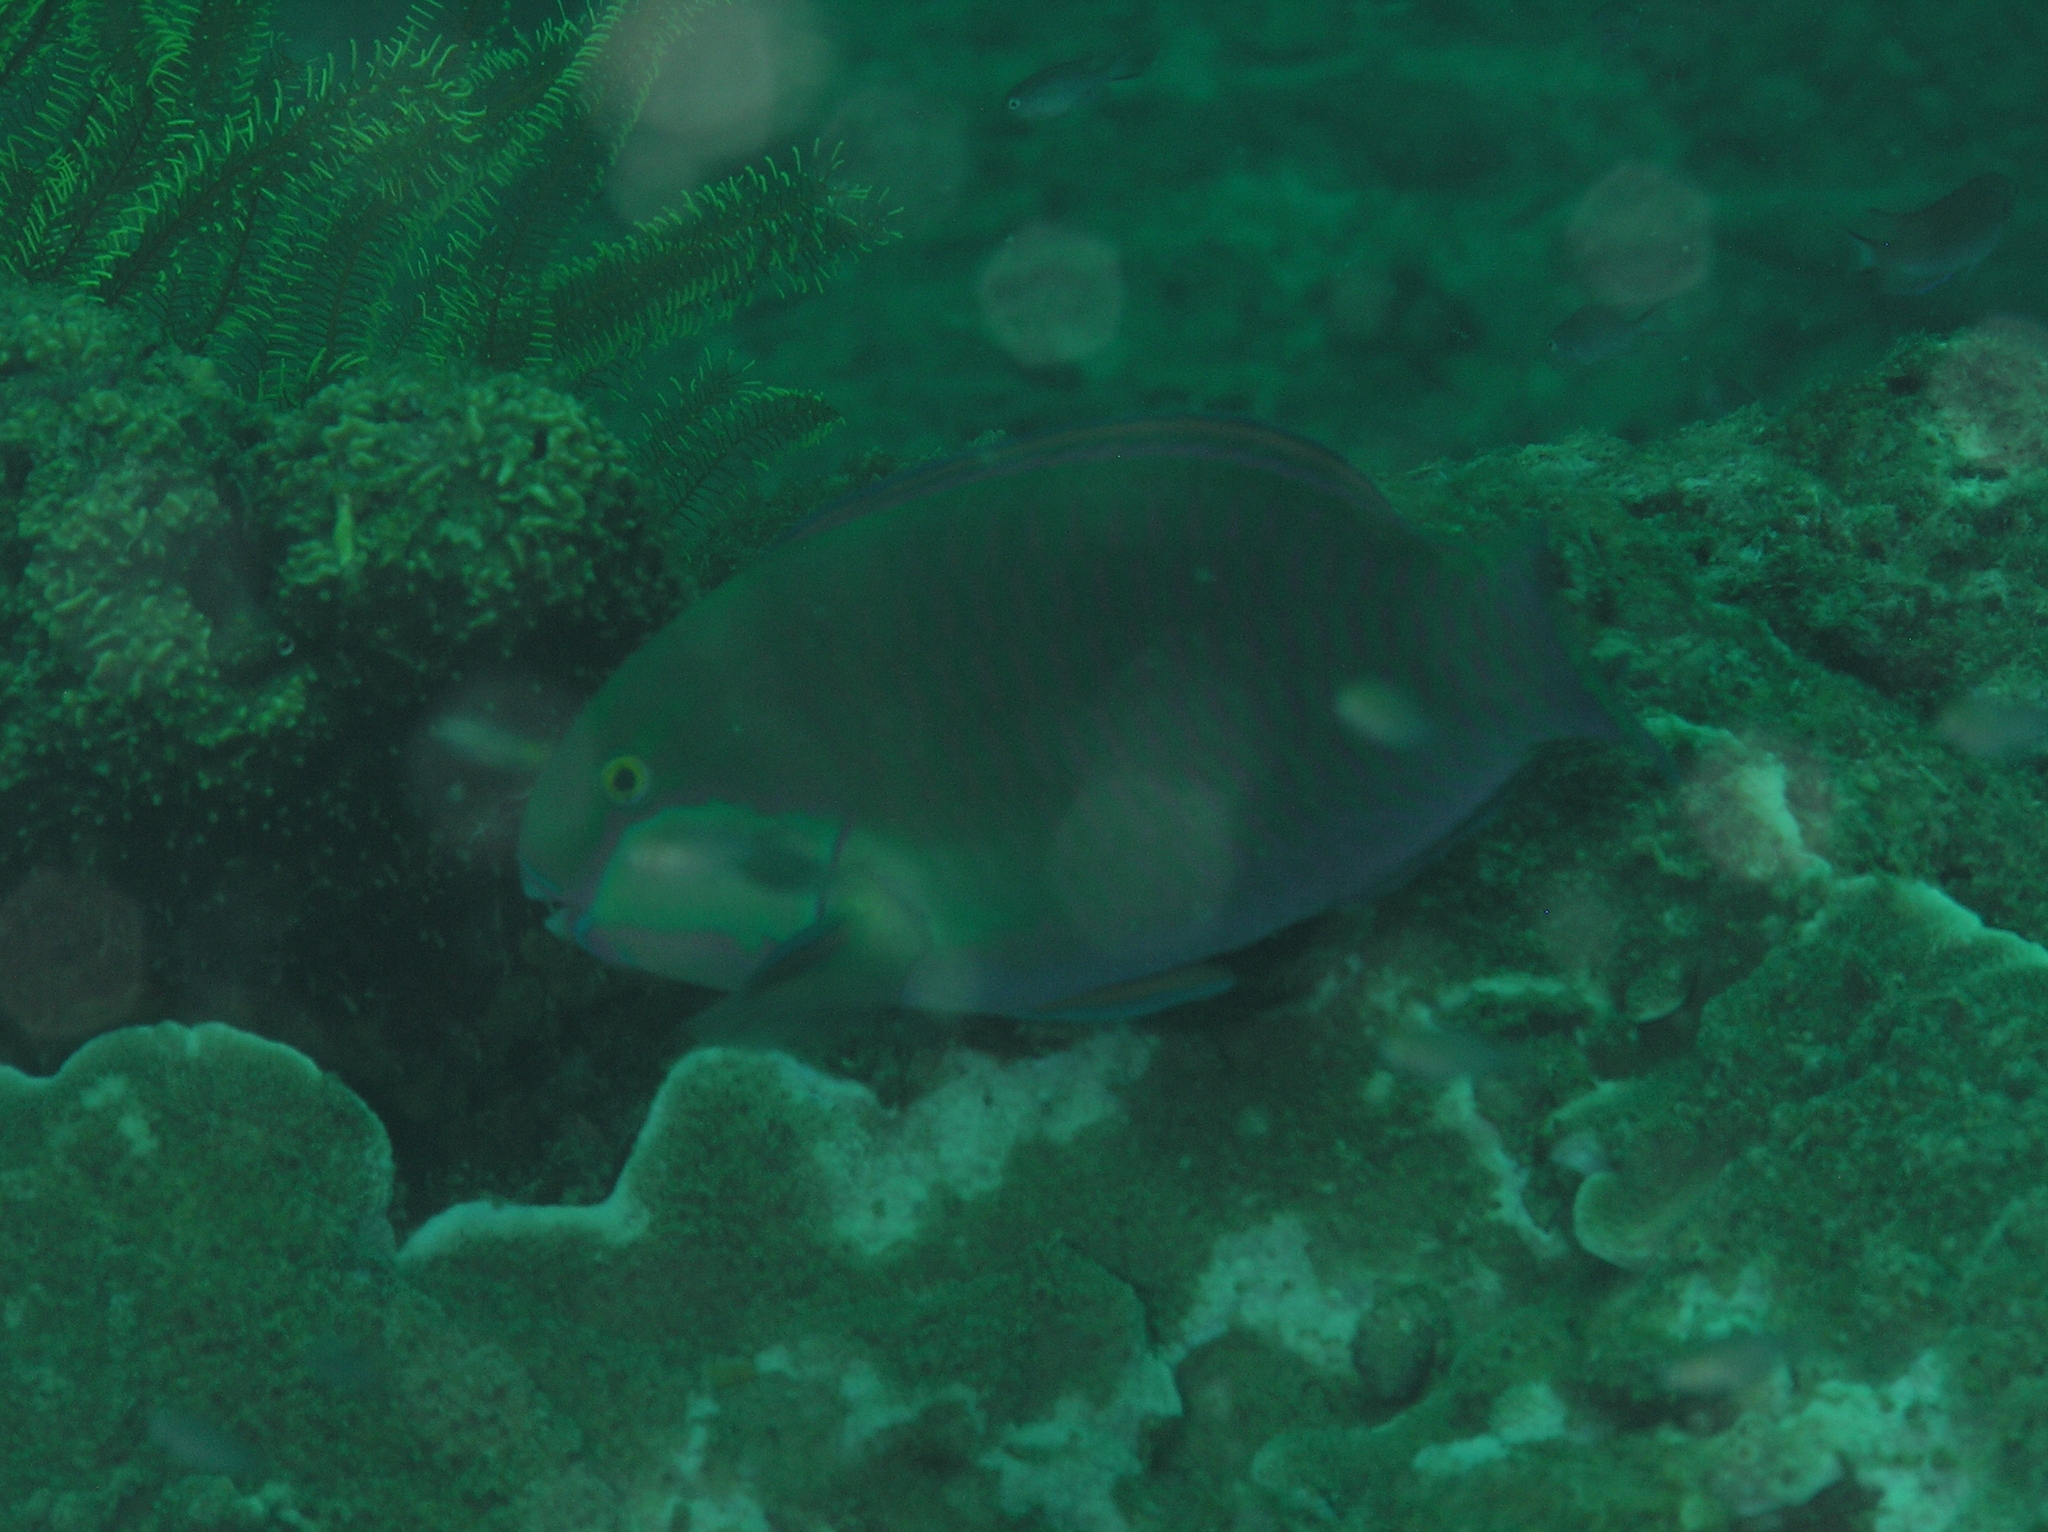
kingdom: Animalia
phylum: Chordata
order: Perciformes
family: Scaridae
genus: Chlorurus
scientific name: Chlorurus bleekeri
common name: Bleeker's parrotfish
